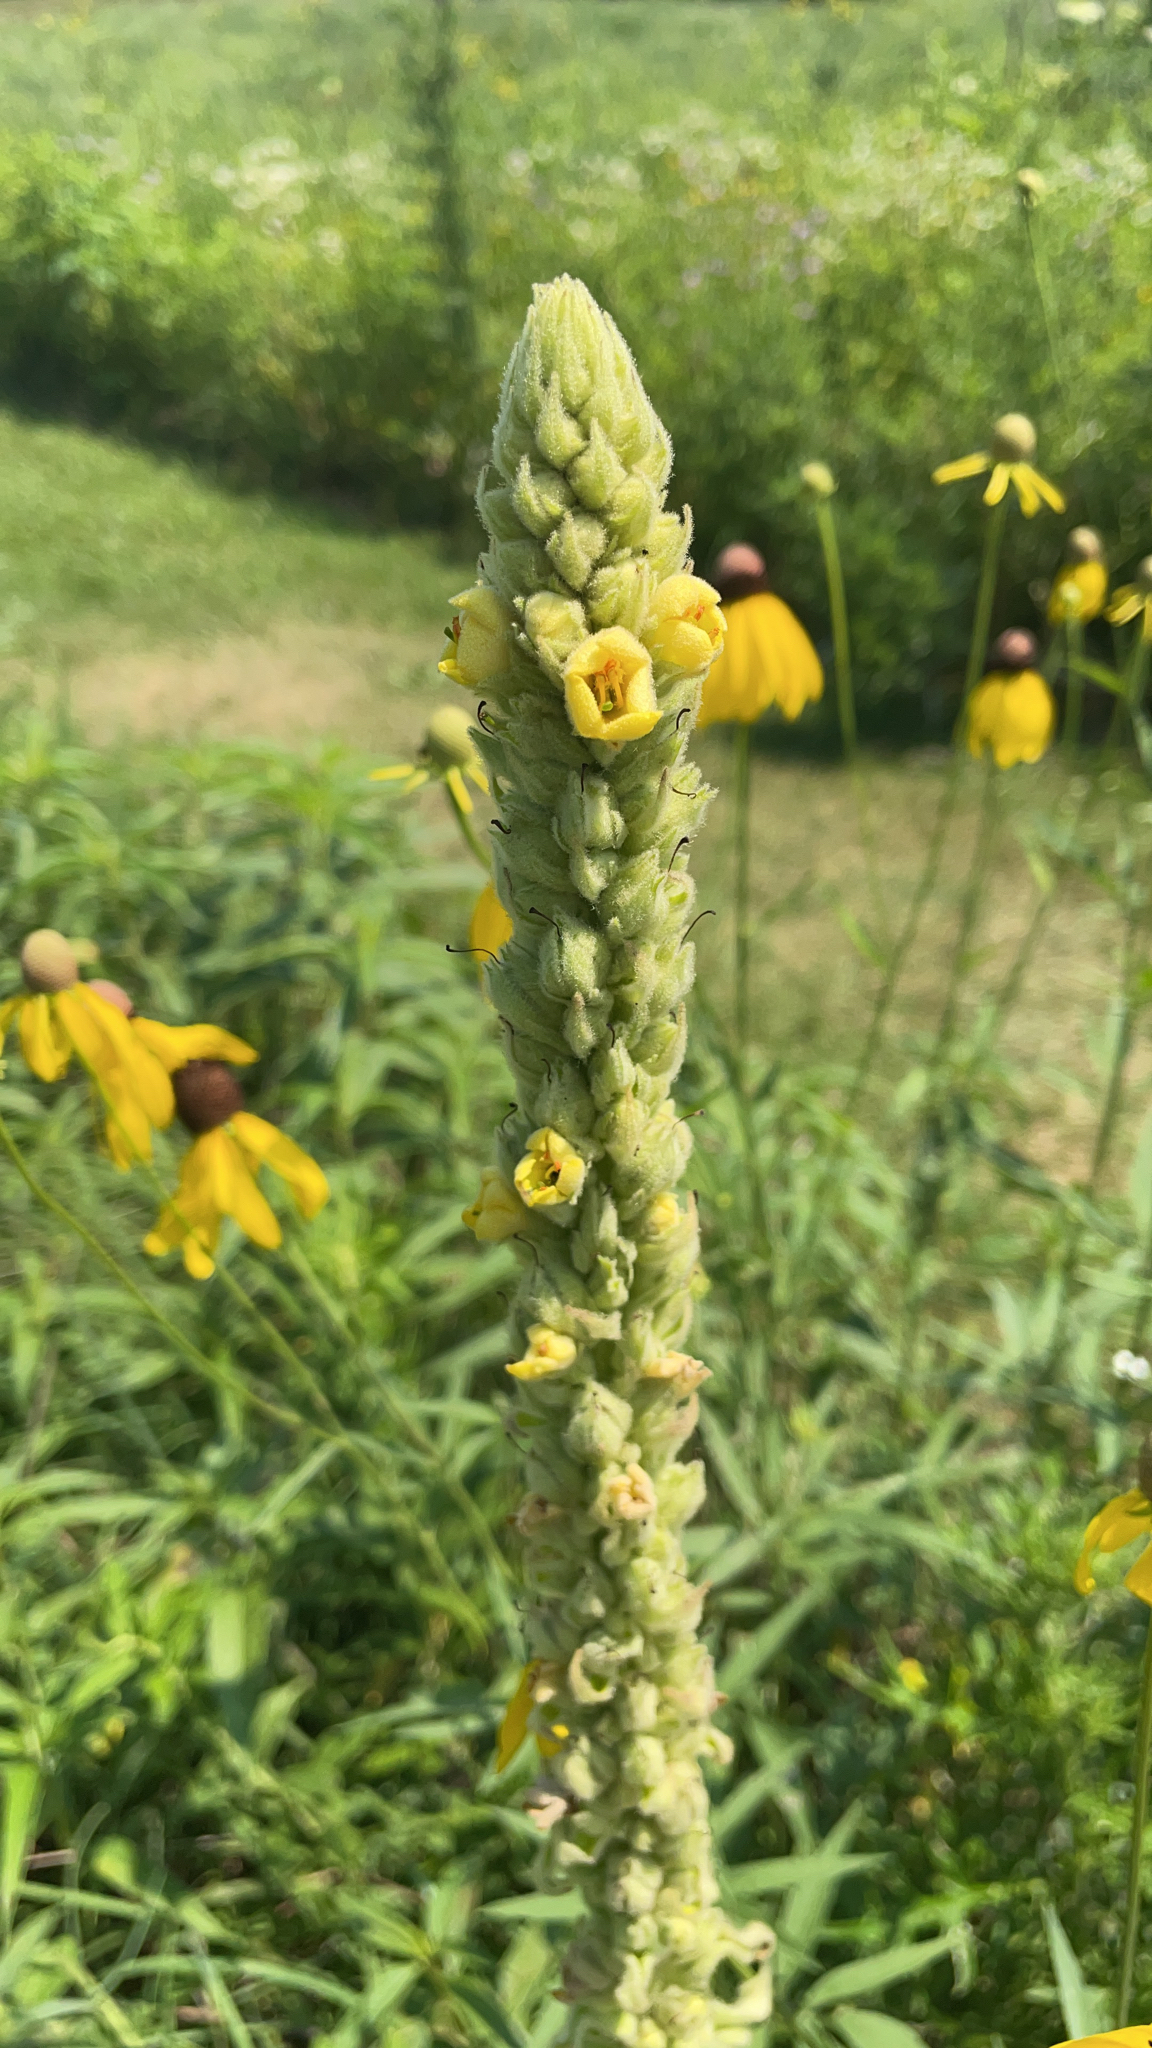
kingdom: Plantae
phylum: Tracheophyta
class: Magnoliopsida
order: Lamiales
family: Scrophulariaceae
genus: Verbascum
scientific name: Verbascum thapsus
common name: Common mullein
